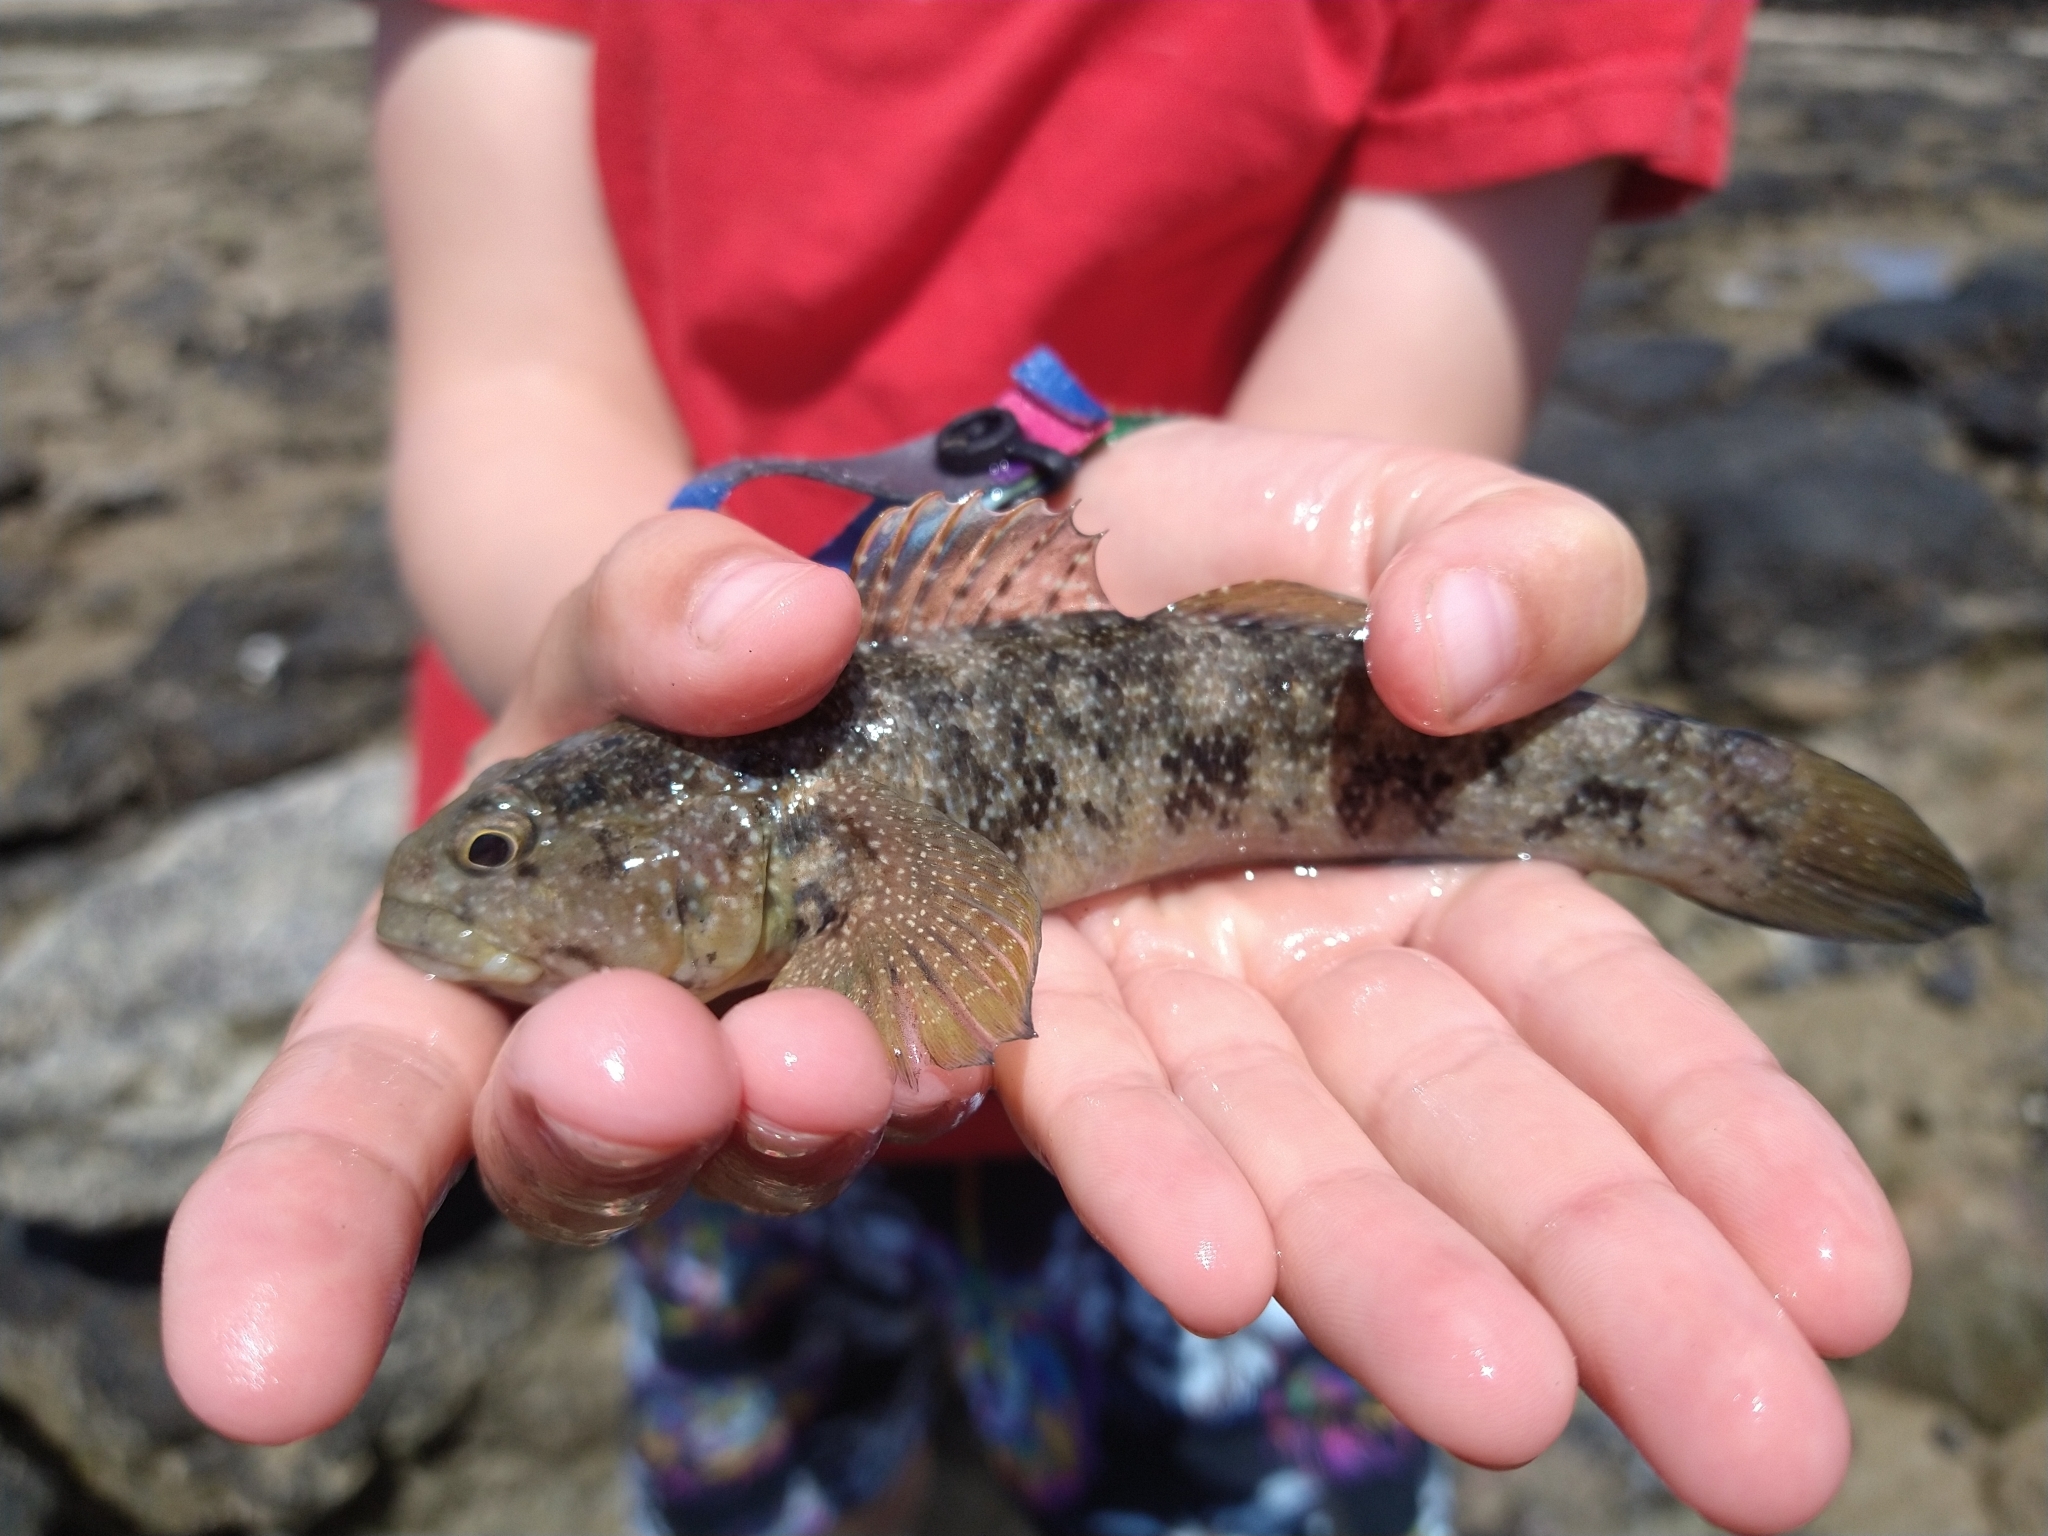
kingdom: Animalia
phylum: Chordata
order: Perciformes
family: Gobiidae
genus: Mauligobius
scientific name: Mauligobius maderensis
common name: Rock goby
